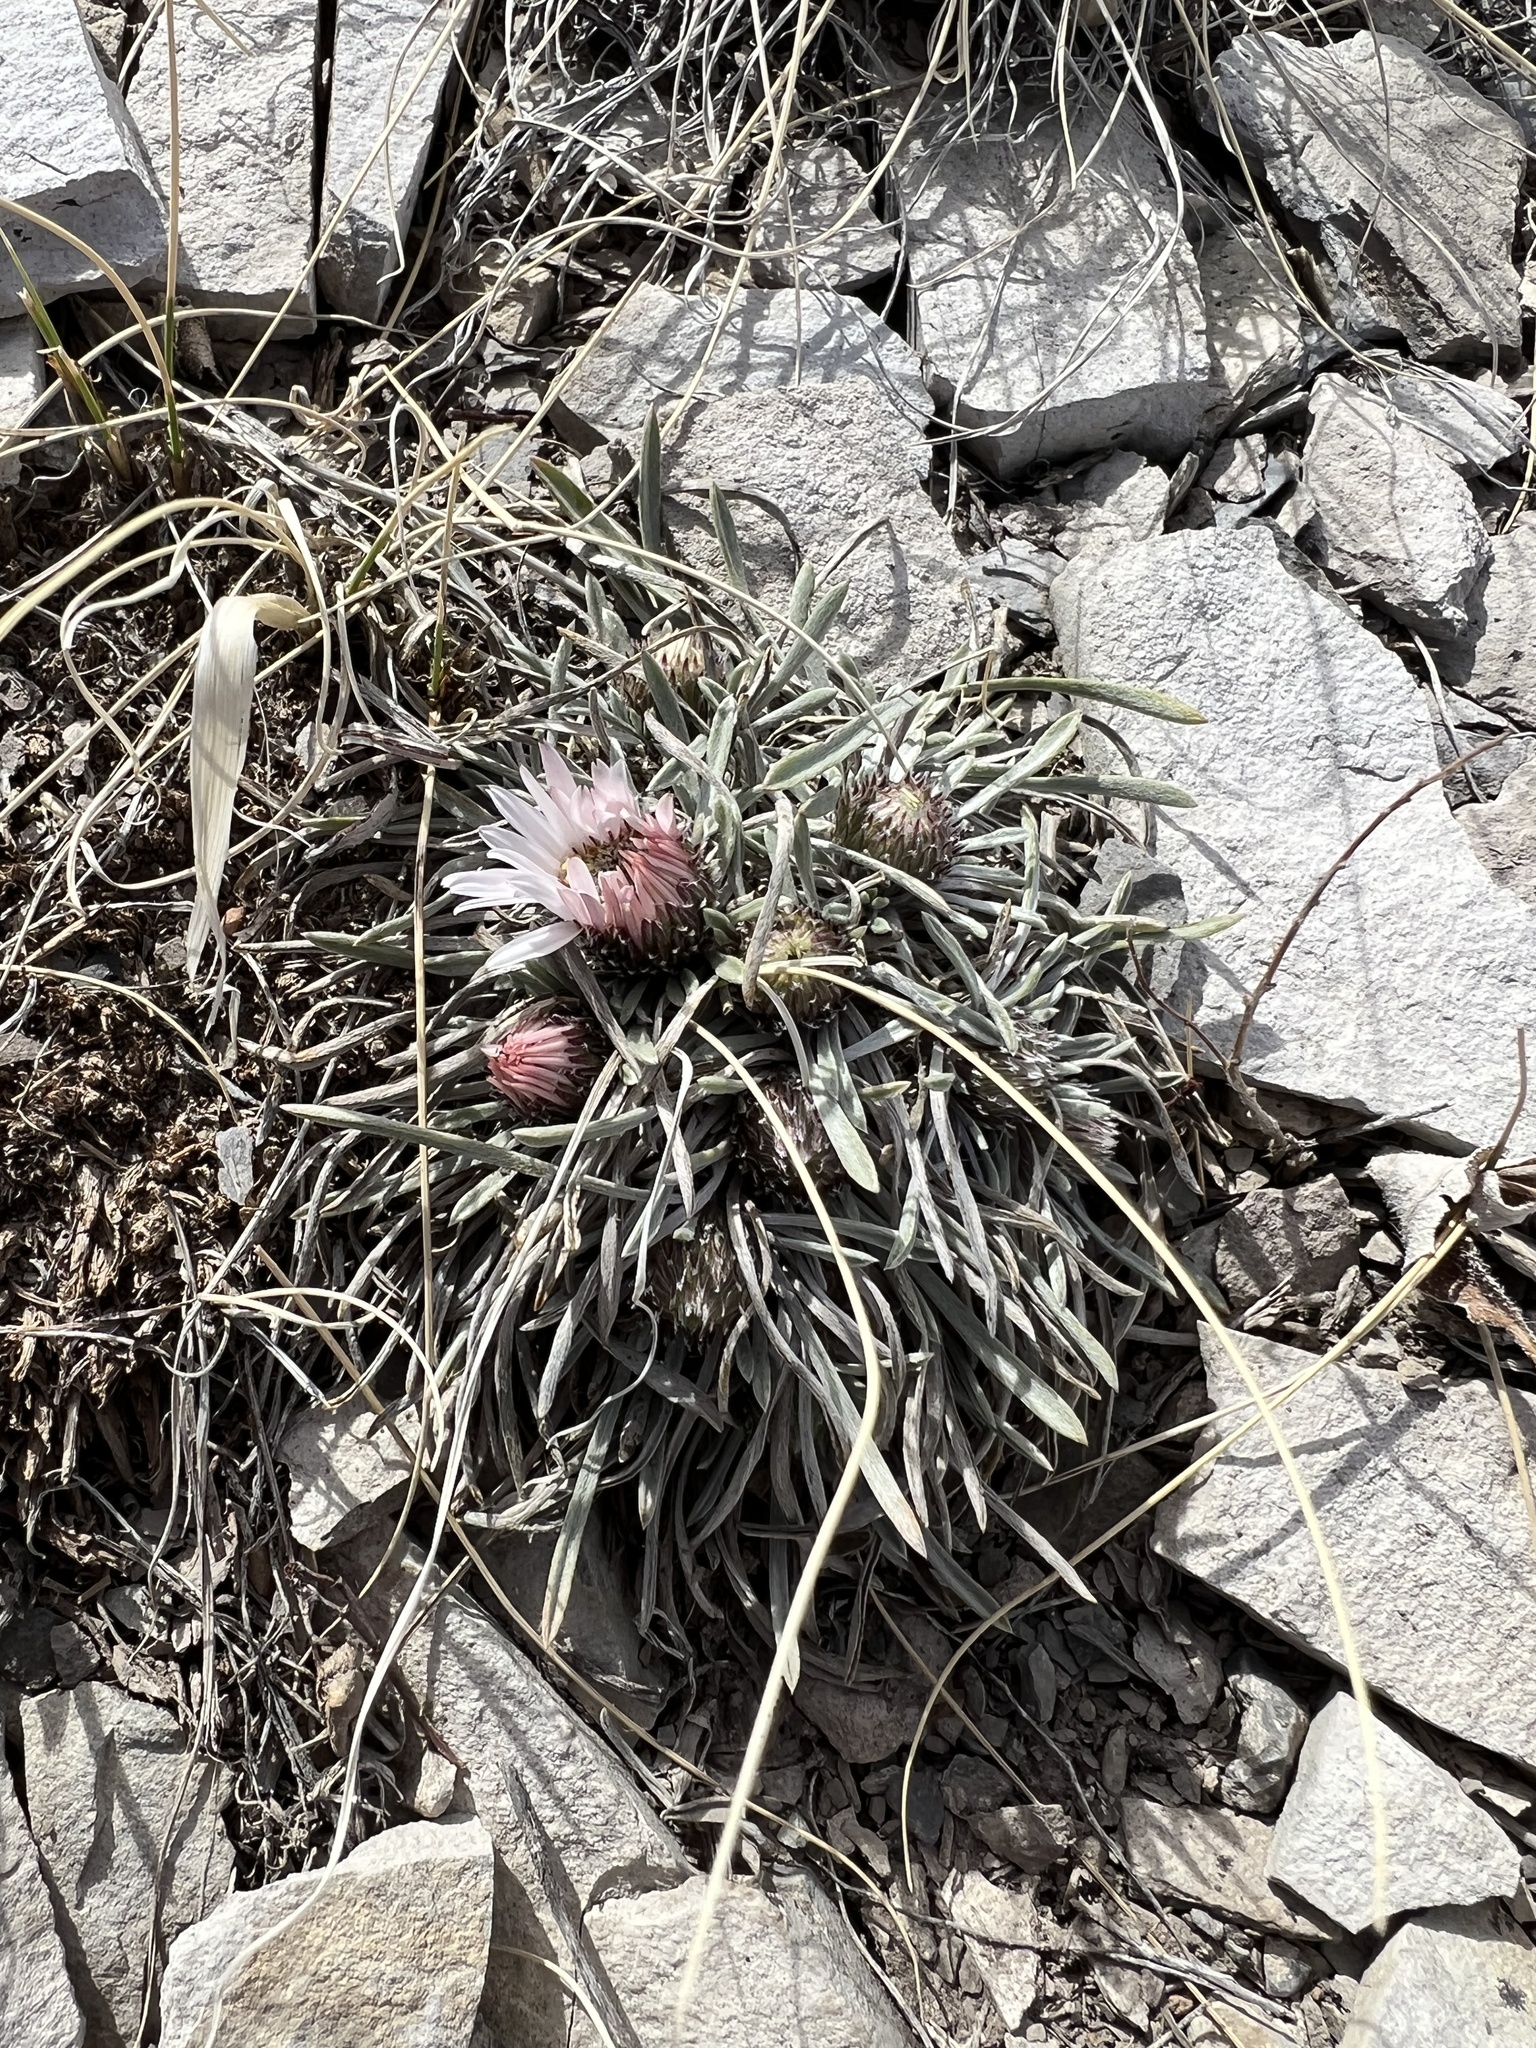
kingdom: Plantae
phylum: Tracheophyta
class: Magnoliopsida
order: Asterales
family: Asteraceae
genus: Townsendia
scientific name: Townsendia hookeri
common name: Hooker's townsend daisy
